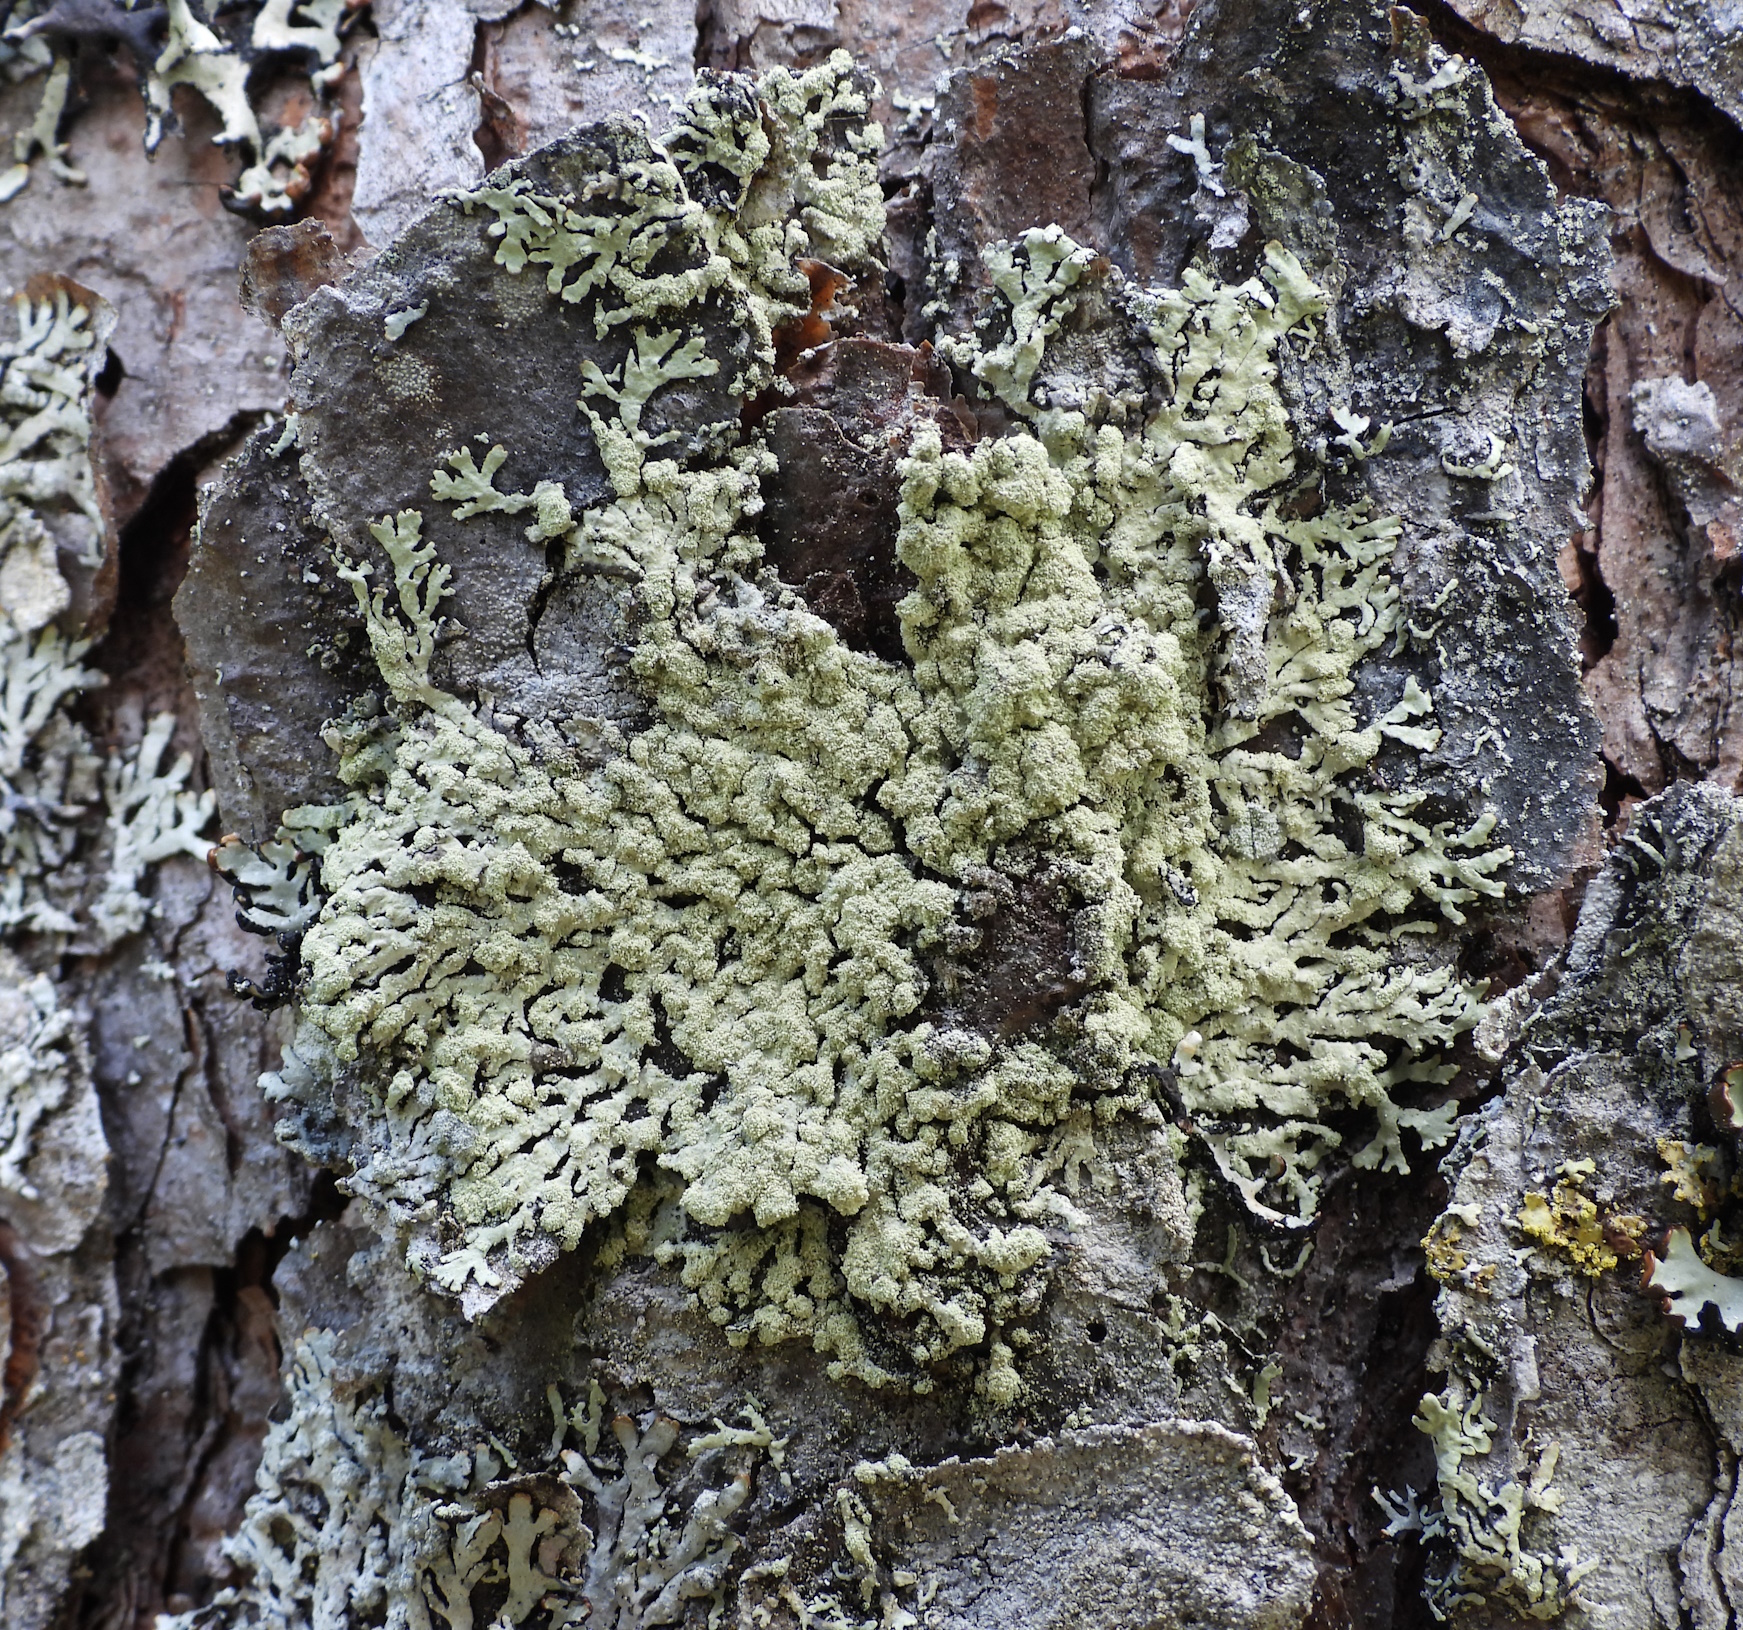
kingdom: Fungi
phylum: Ascomycota
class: Lecanoromycetes
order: Lecanorales
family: Parmeliaceae
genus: Parmeliopsis
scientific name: Parmeliopsis ambigua
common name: Green starburst lichen
